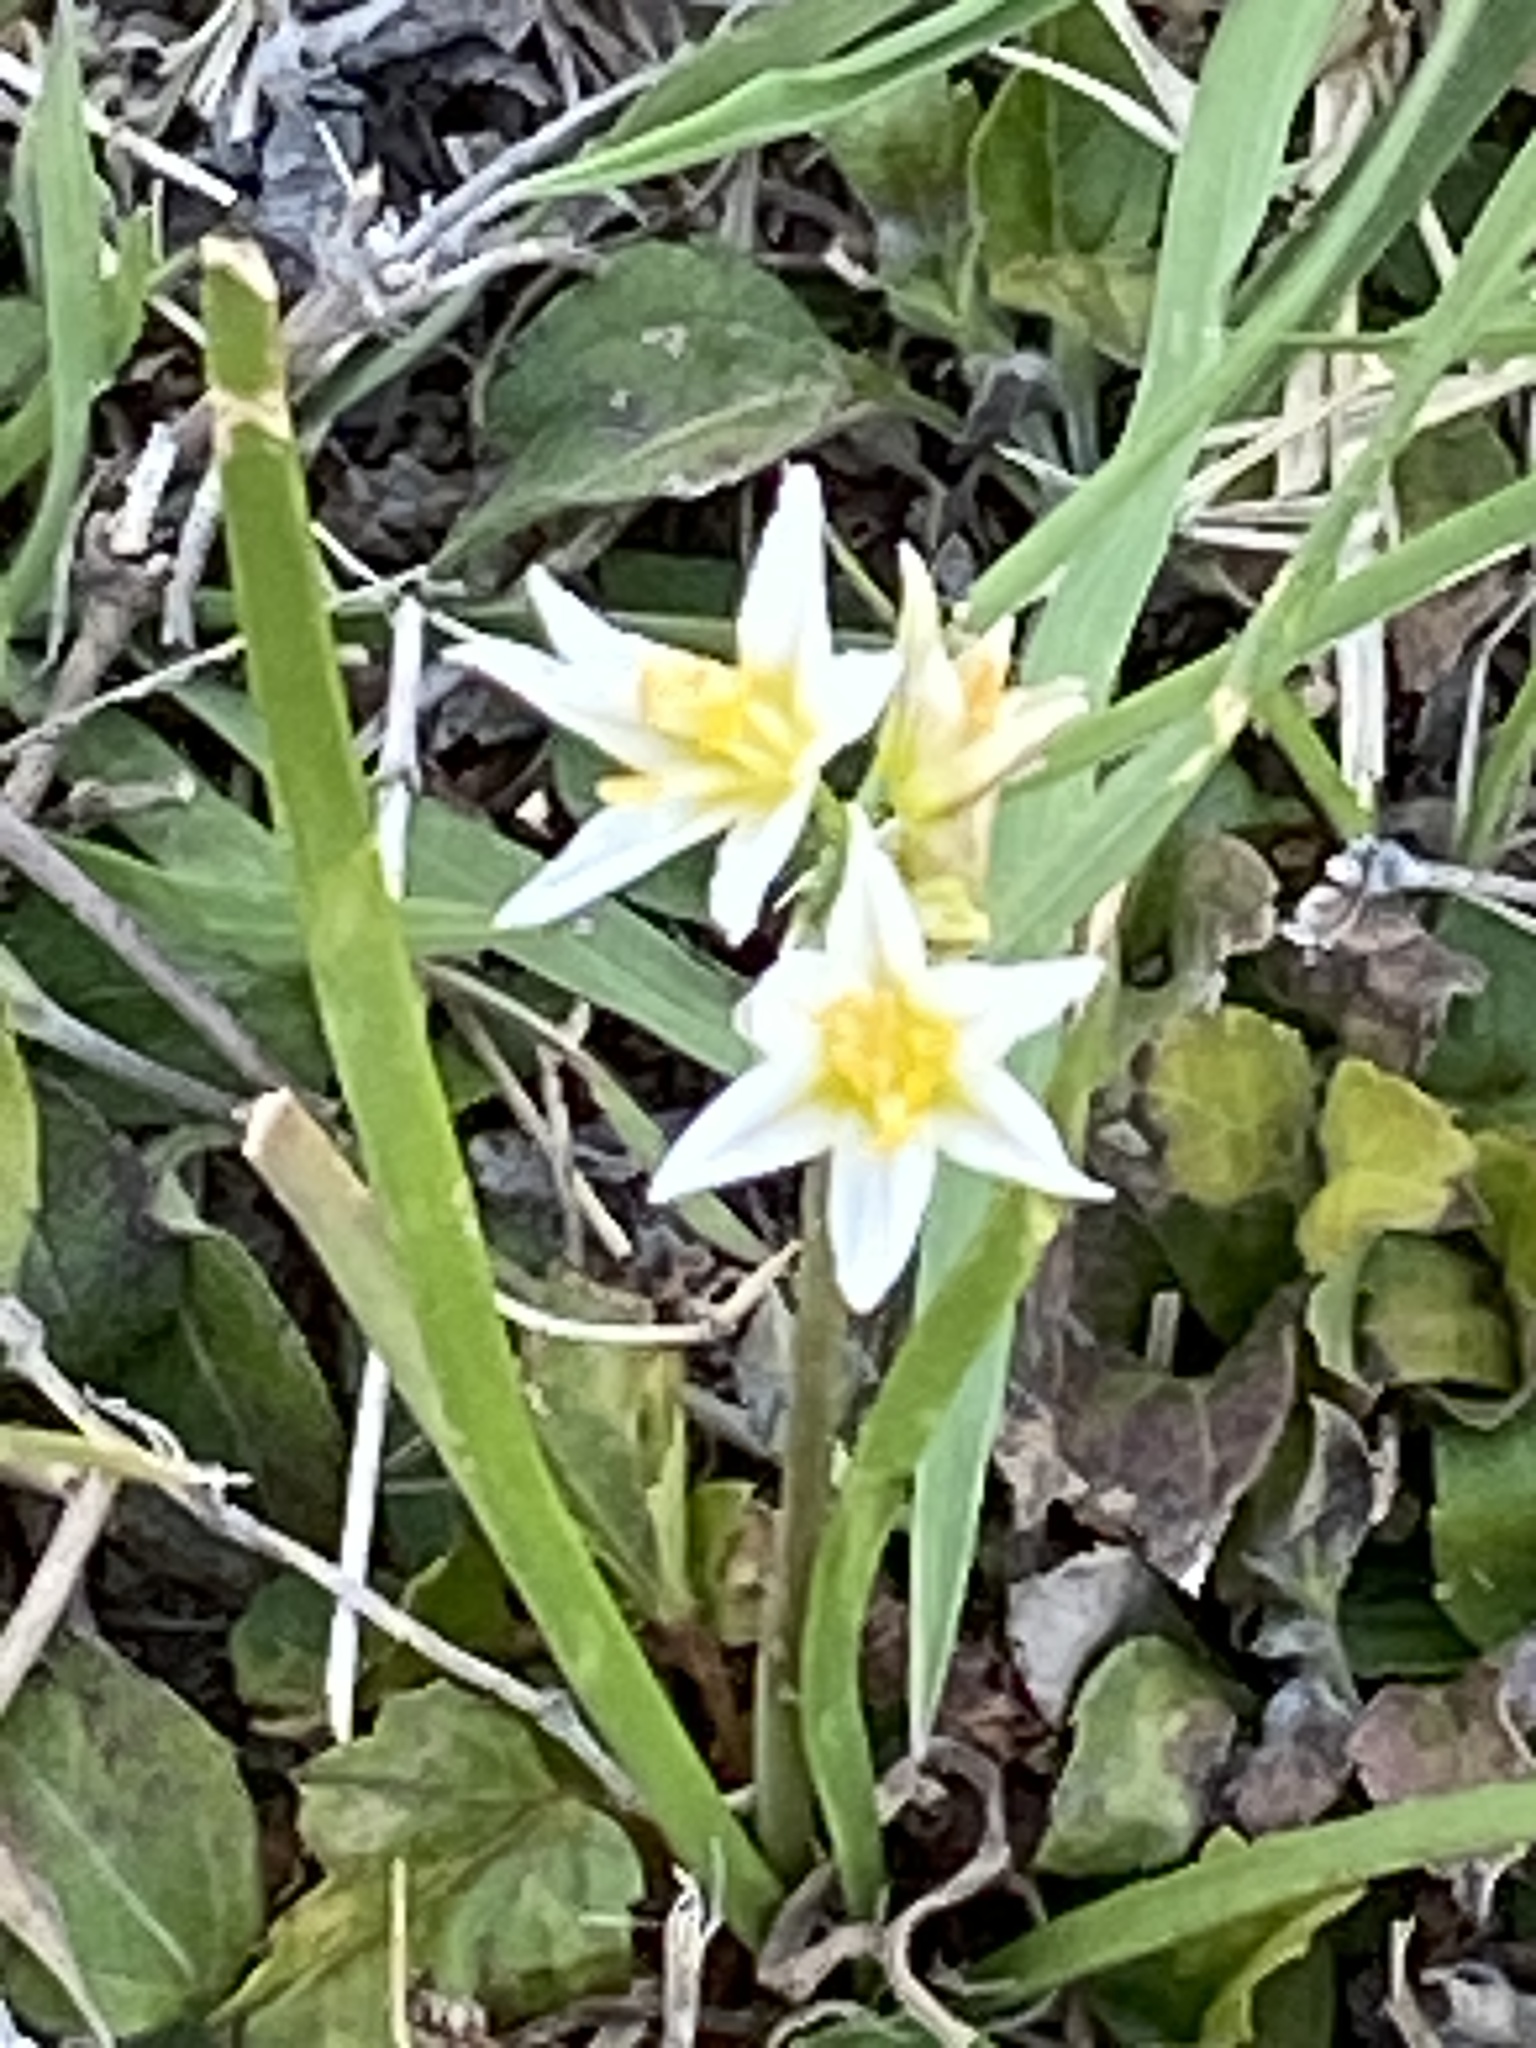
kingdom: Plantae
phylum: Tracheophyta
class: Liliopsida
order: Asparagales
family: Amaryllidaceae
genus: Nothoscordum
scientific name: Nothoscordum bivalve
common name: Crow-poison
